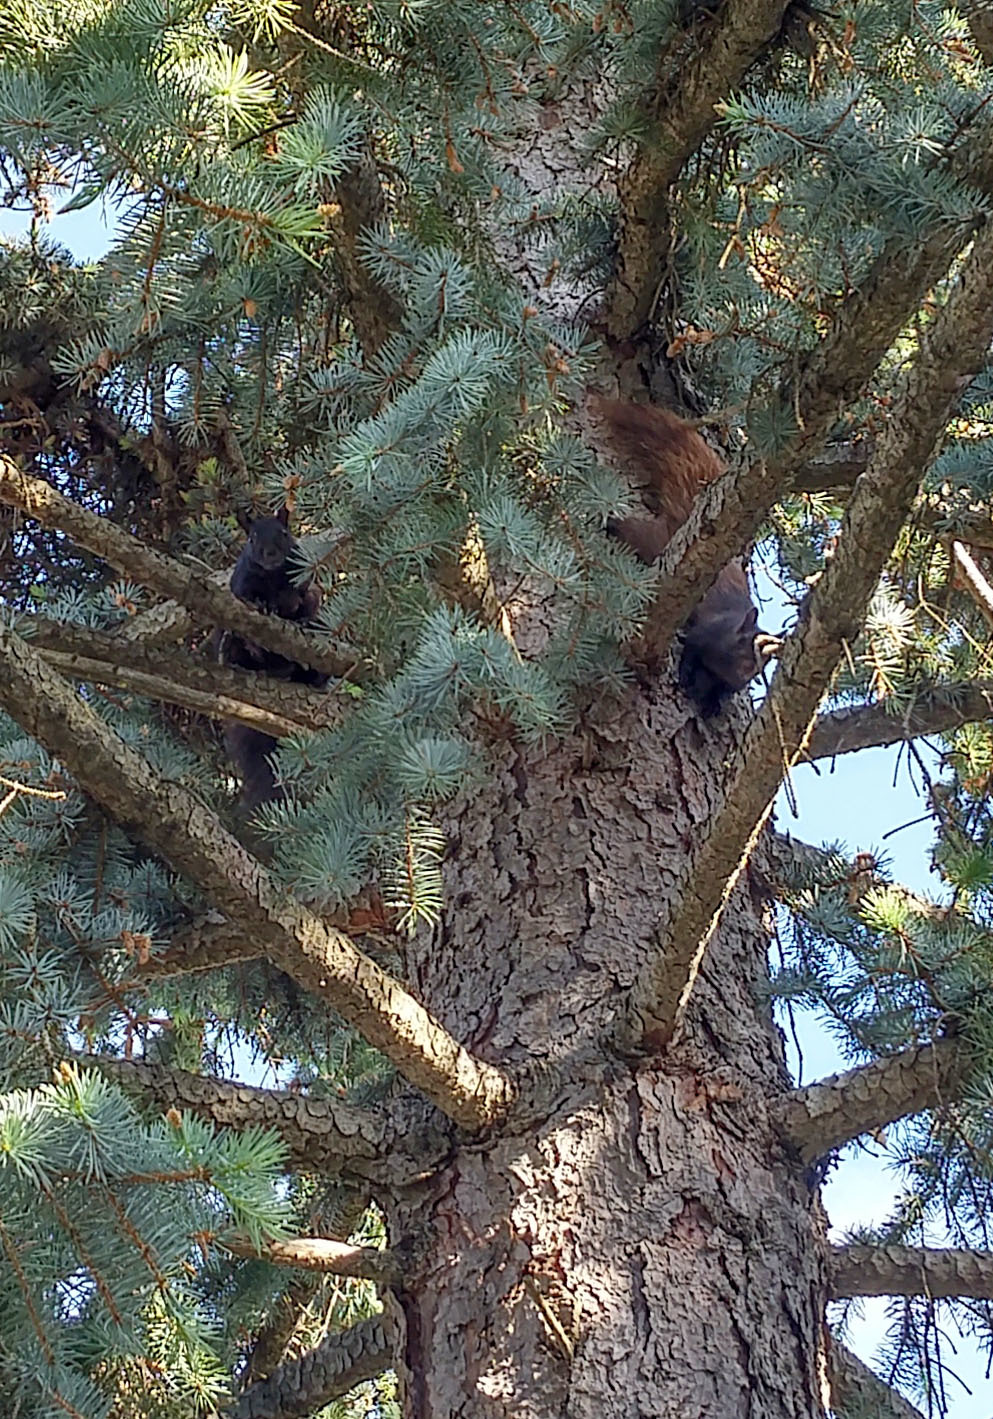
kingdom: Animalia
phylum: Chordata
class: Mammalia
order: Rodentia
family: Sciuridae
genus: Sciurus
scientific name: Sciurus carolinensis
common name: Eastern gray squirrel
